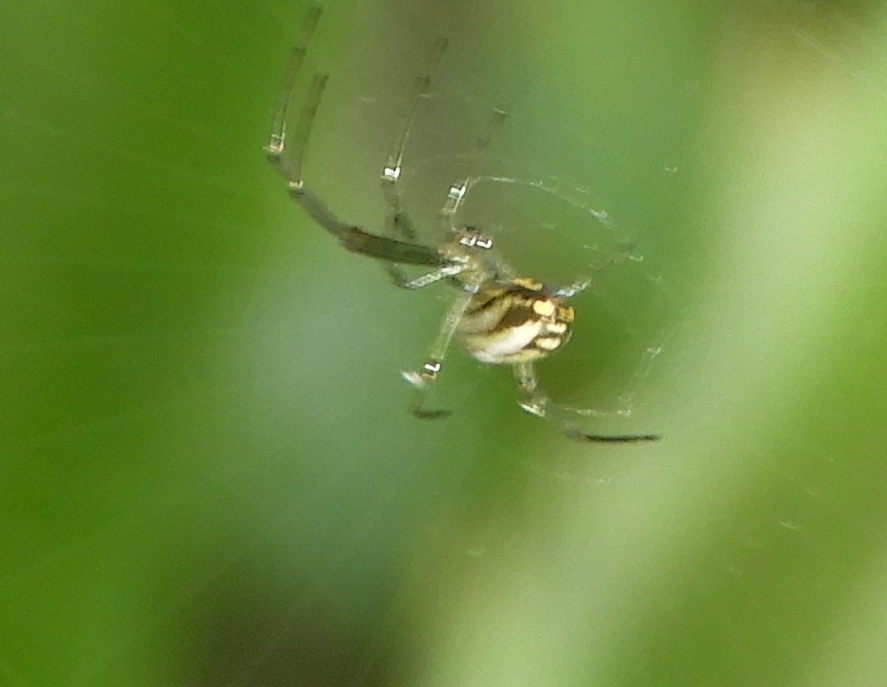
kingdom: Animalia
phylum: Arthropoda
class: Arachnida
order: Araneae
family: Tetragnathidae
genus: Leucauge
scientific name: Leucauge
